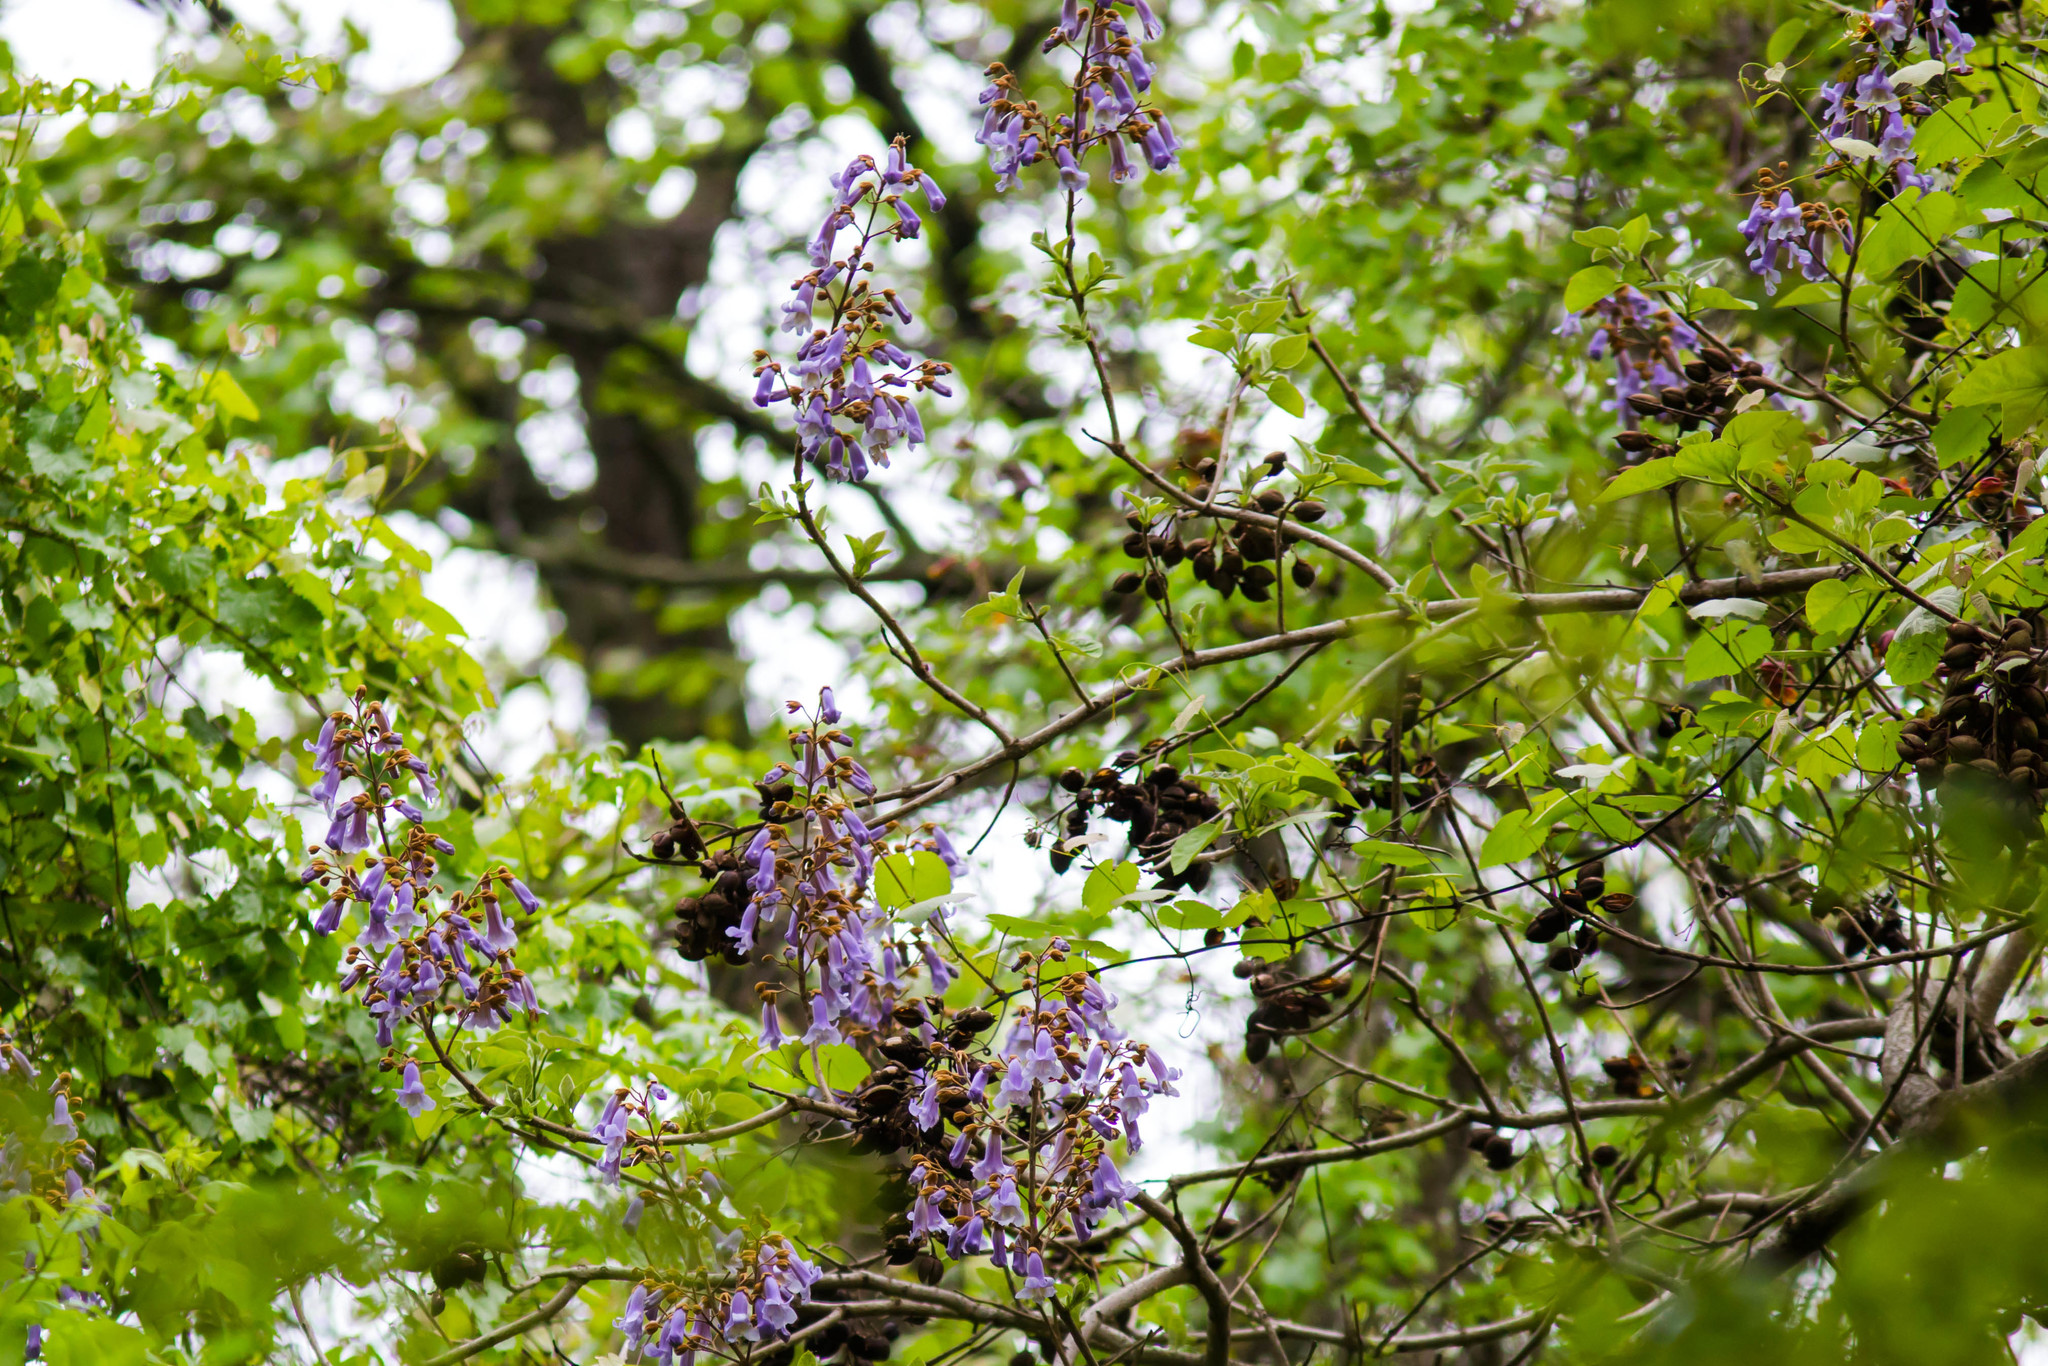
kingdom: Plantae
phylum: Tracheophyta
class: Magnoliopsida
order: Lamiales
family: Paulowniaceae
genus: Paulownia
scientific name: Paulownia tomentosa
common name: Foxglove-tree
